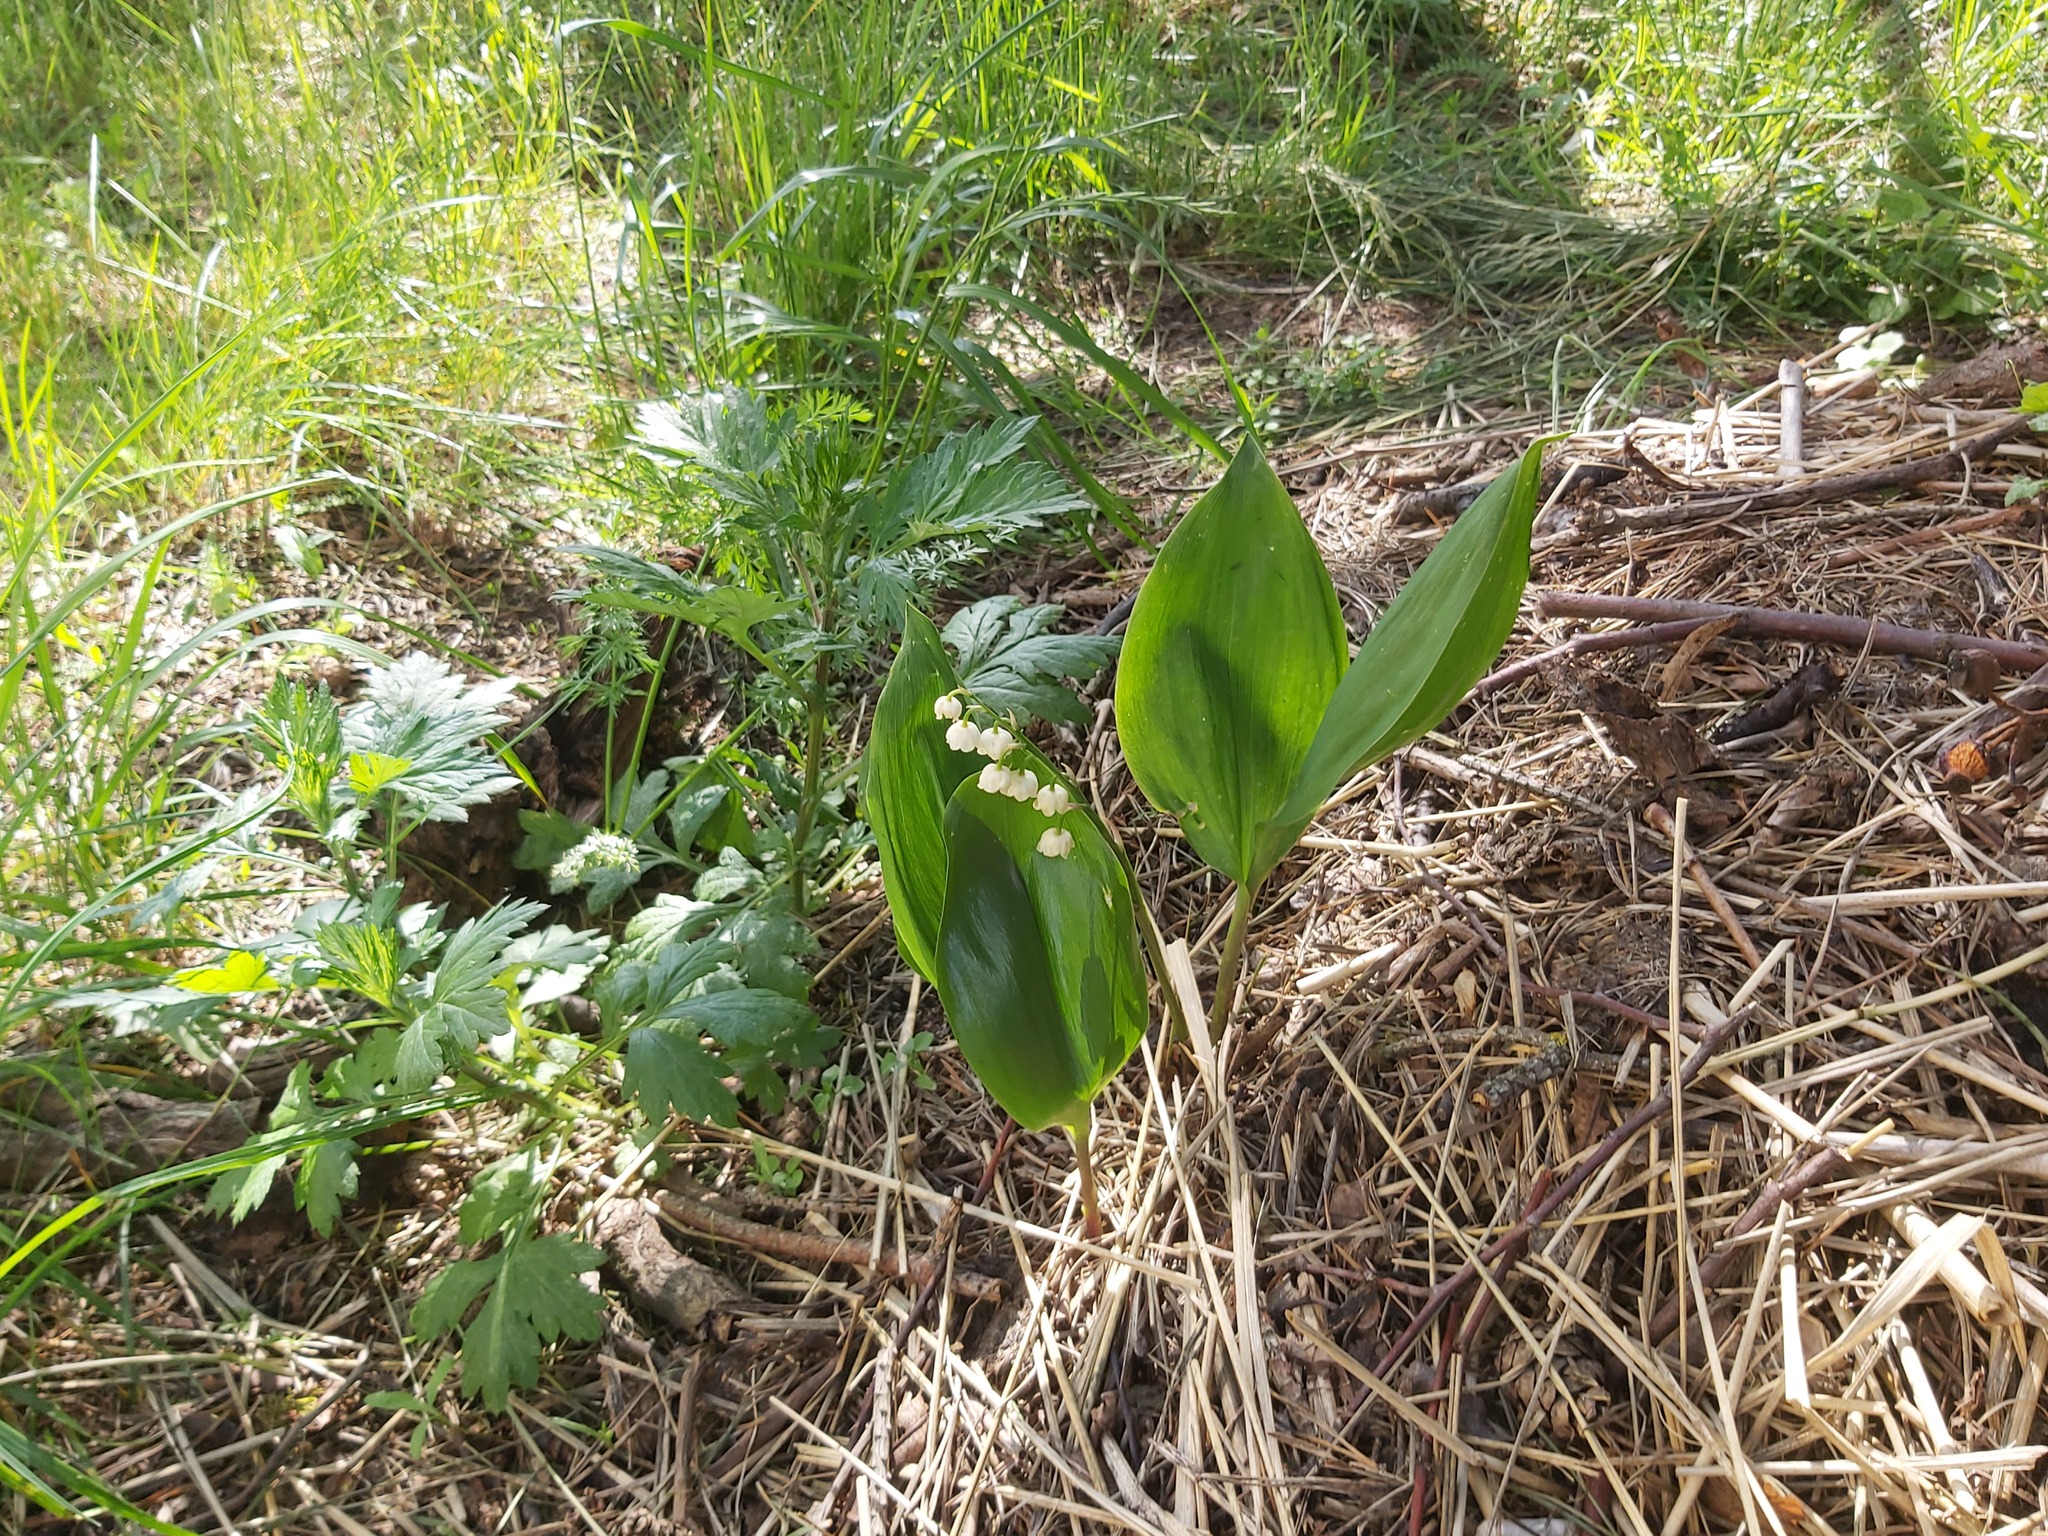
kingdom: Plantae
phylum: Tracheophyta
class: Liliopsida
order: Asparagales
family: Asparagaceae
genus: Convallaria
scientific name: Convallaria majalis
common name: Lily-of-the-valley
